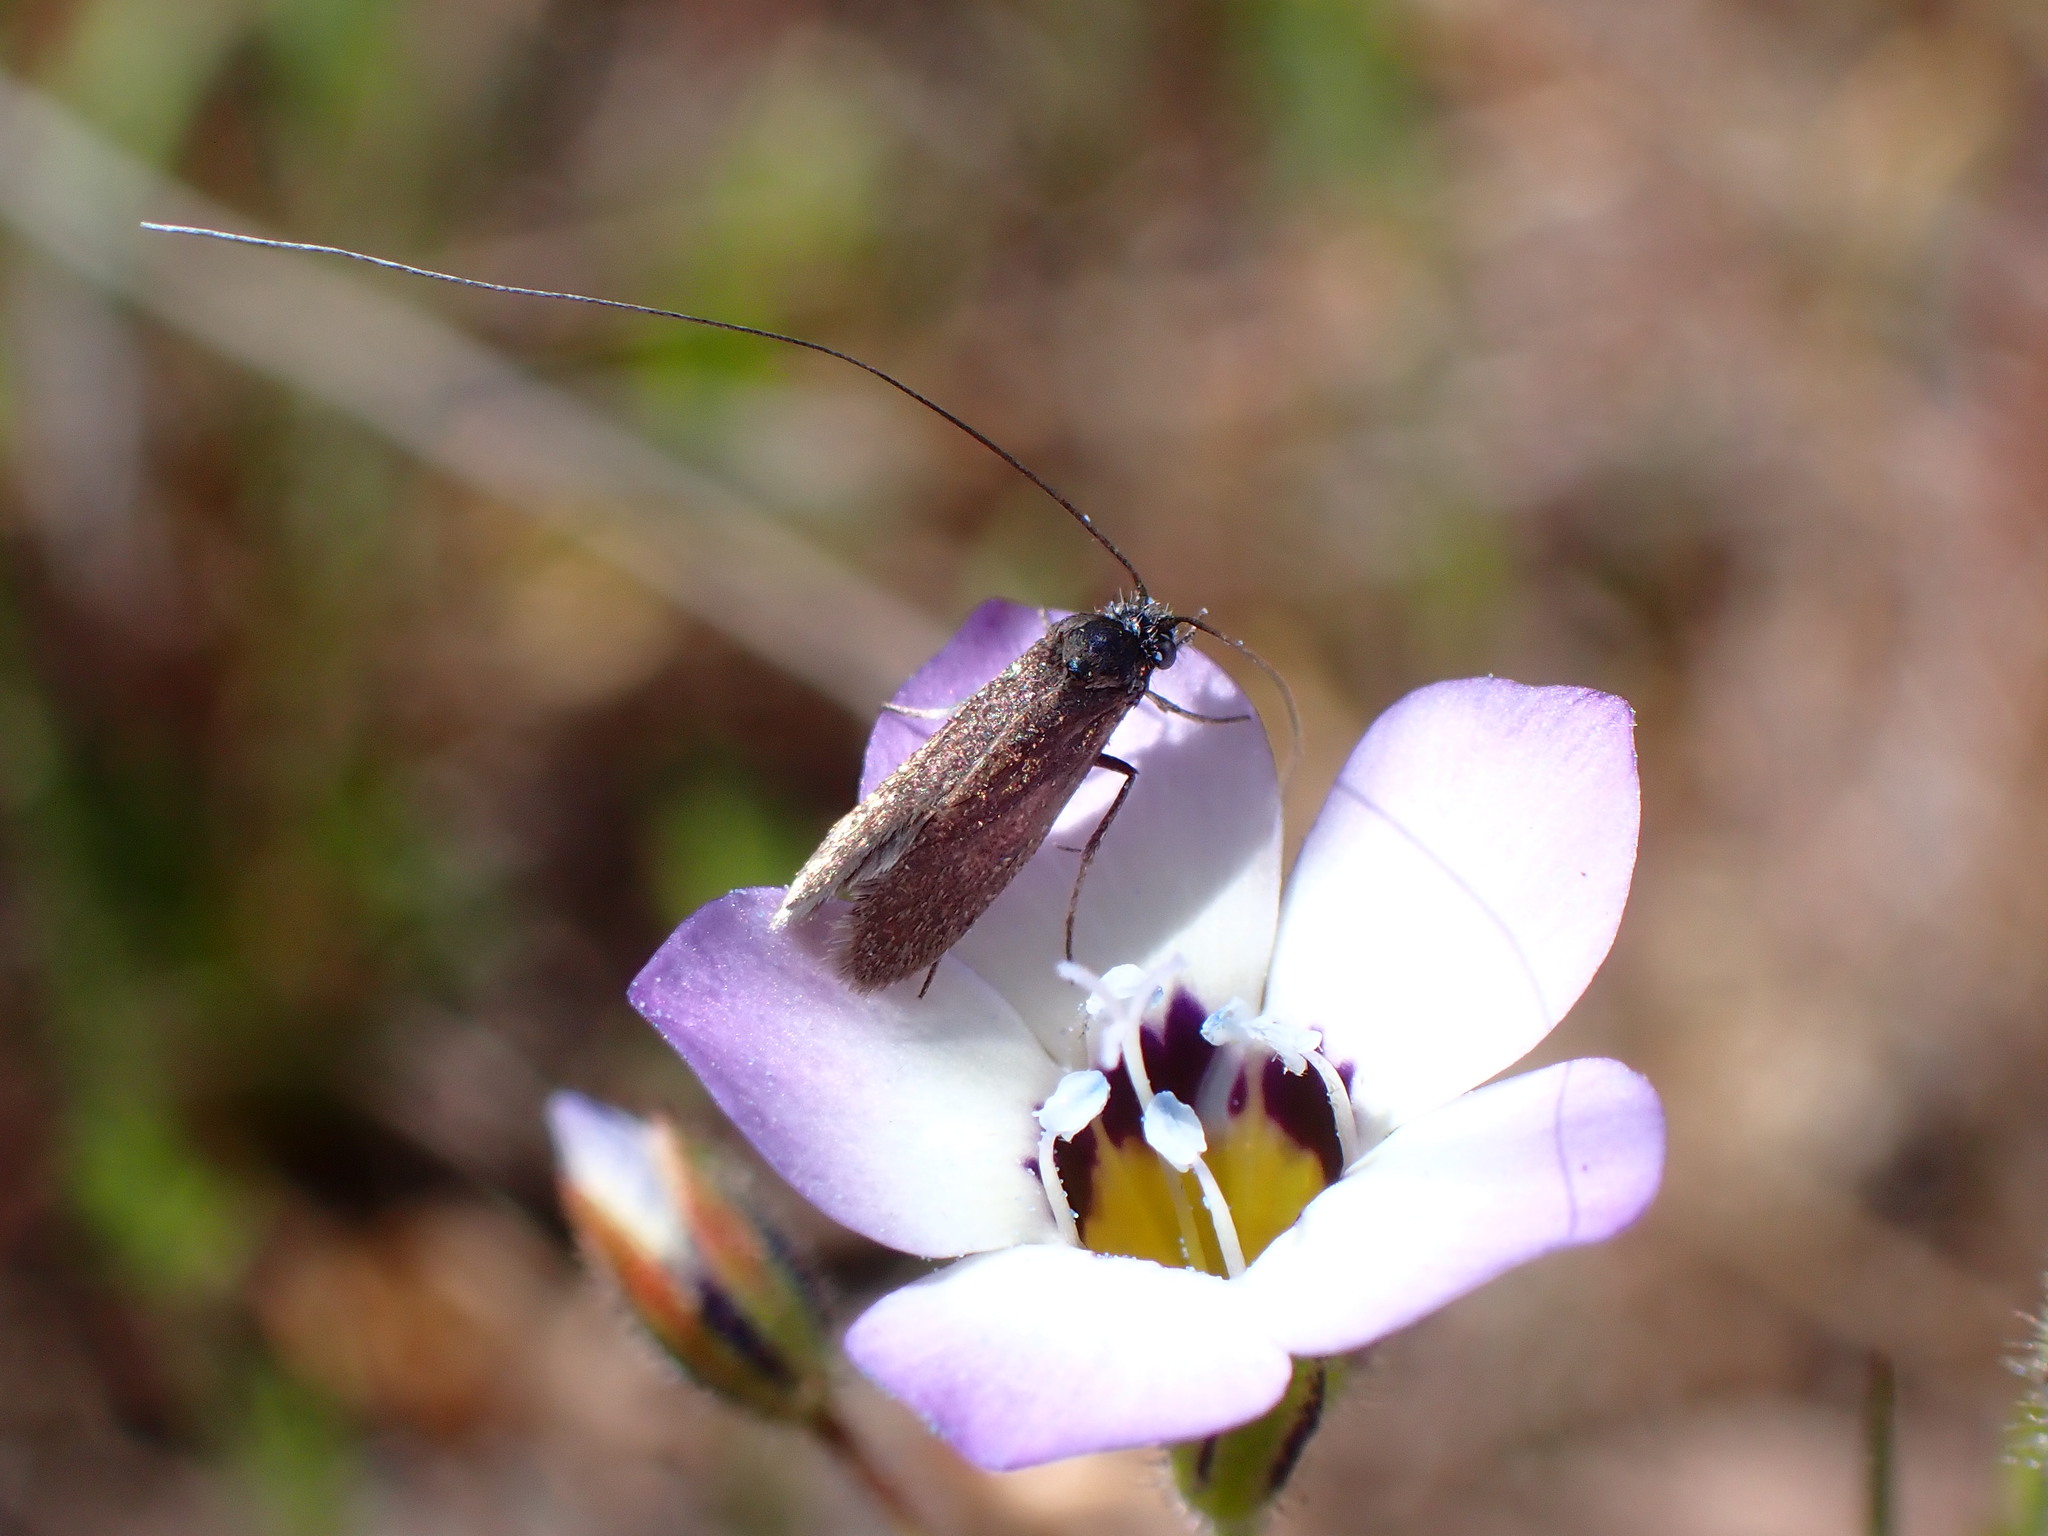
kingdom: Animalia
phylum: Arthropoda
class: Insecta
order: Lepidoptera
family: Adelidae
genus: Adela
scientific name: Adela punctiferella
